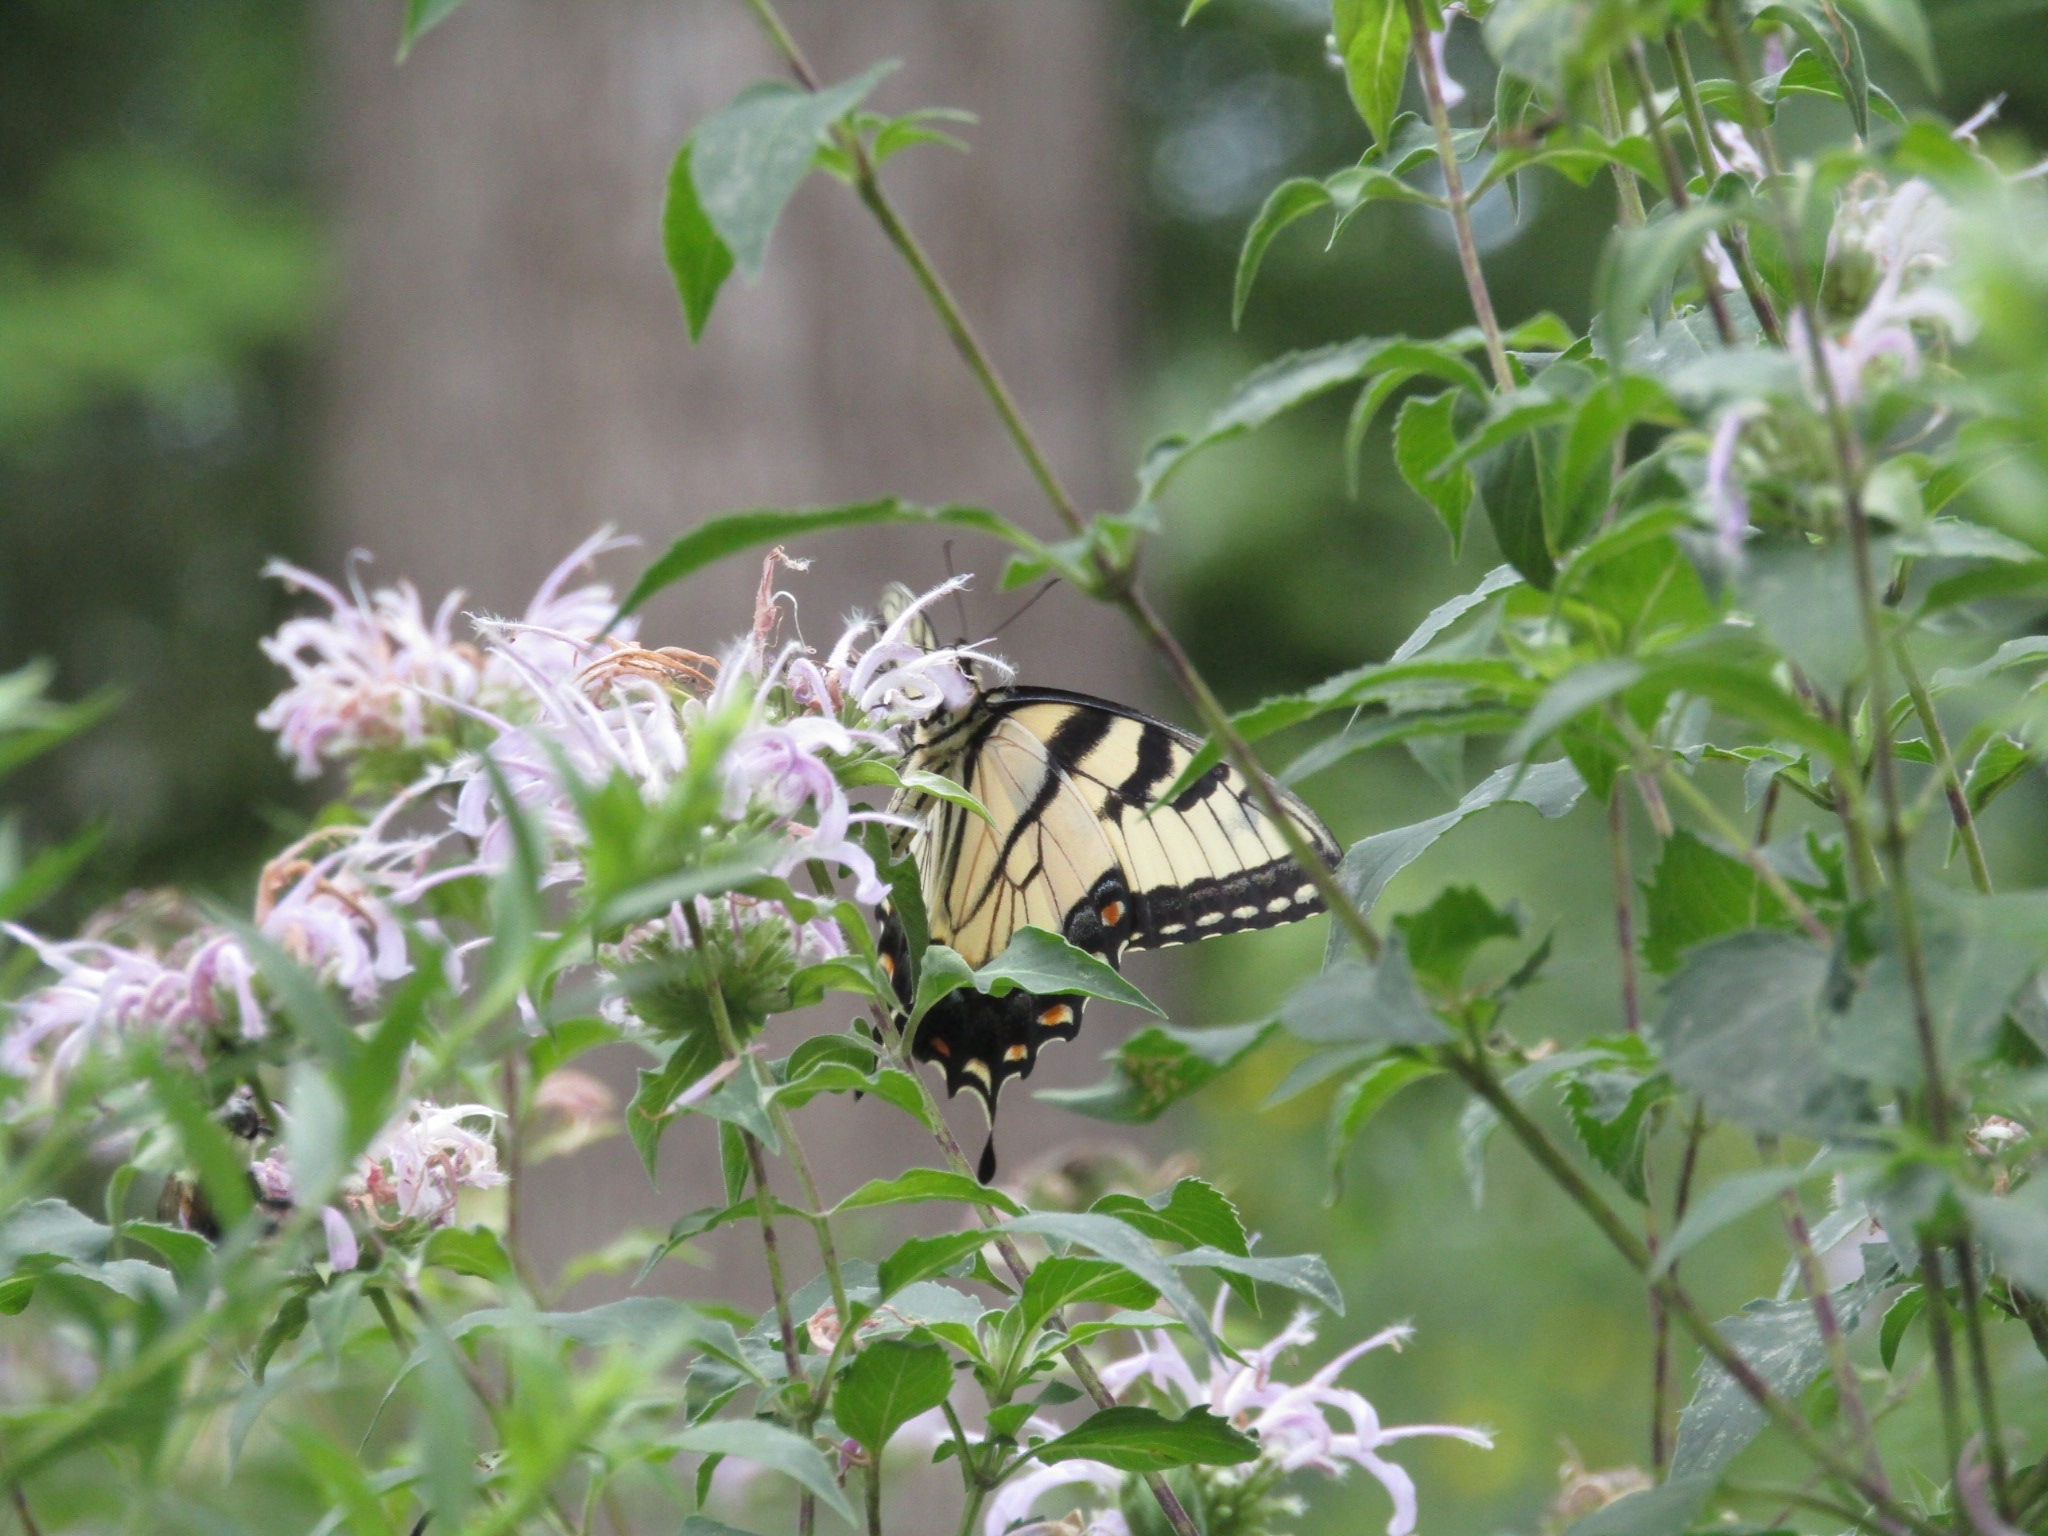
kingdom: Animalia
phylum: Arthropoda
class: Insecta
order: Lepidoptera
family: Papilionidae
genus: Papilio
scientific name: Papilio glaucus
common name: Tiger swallowtail
